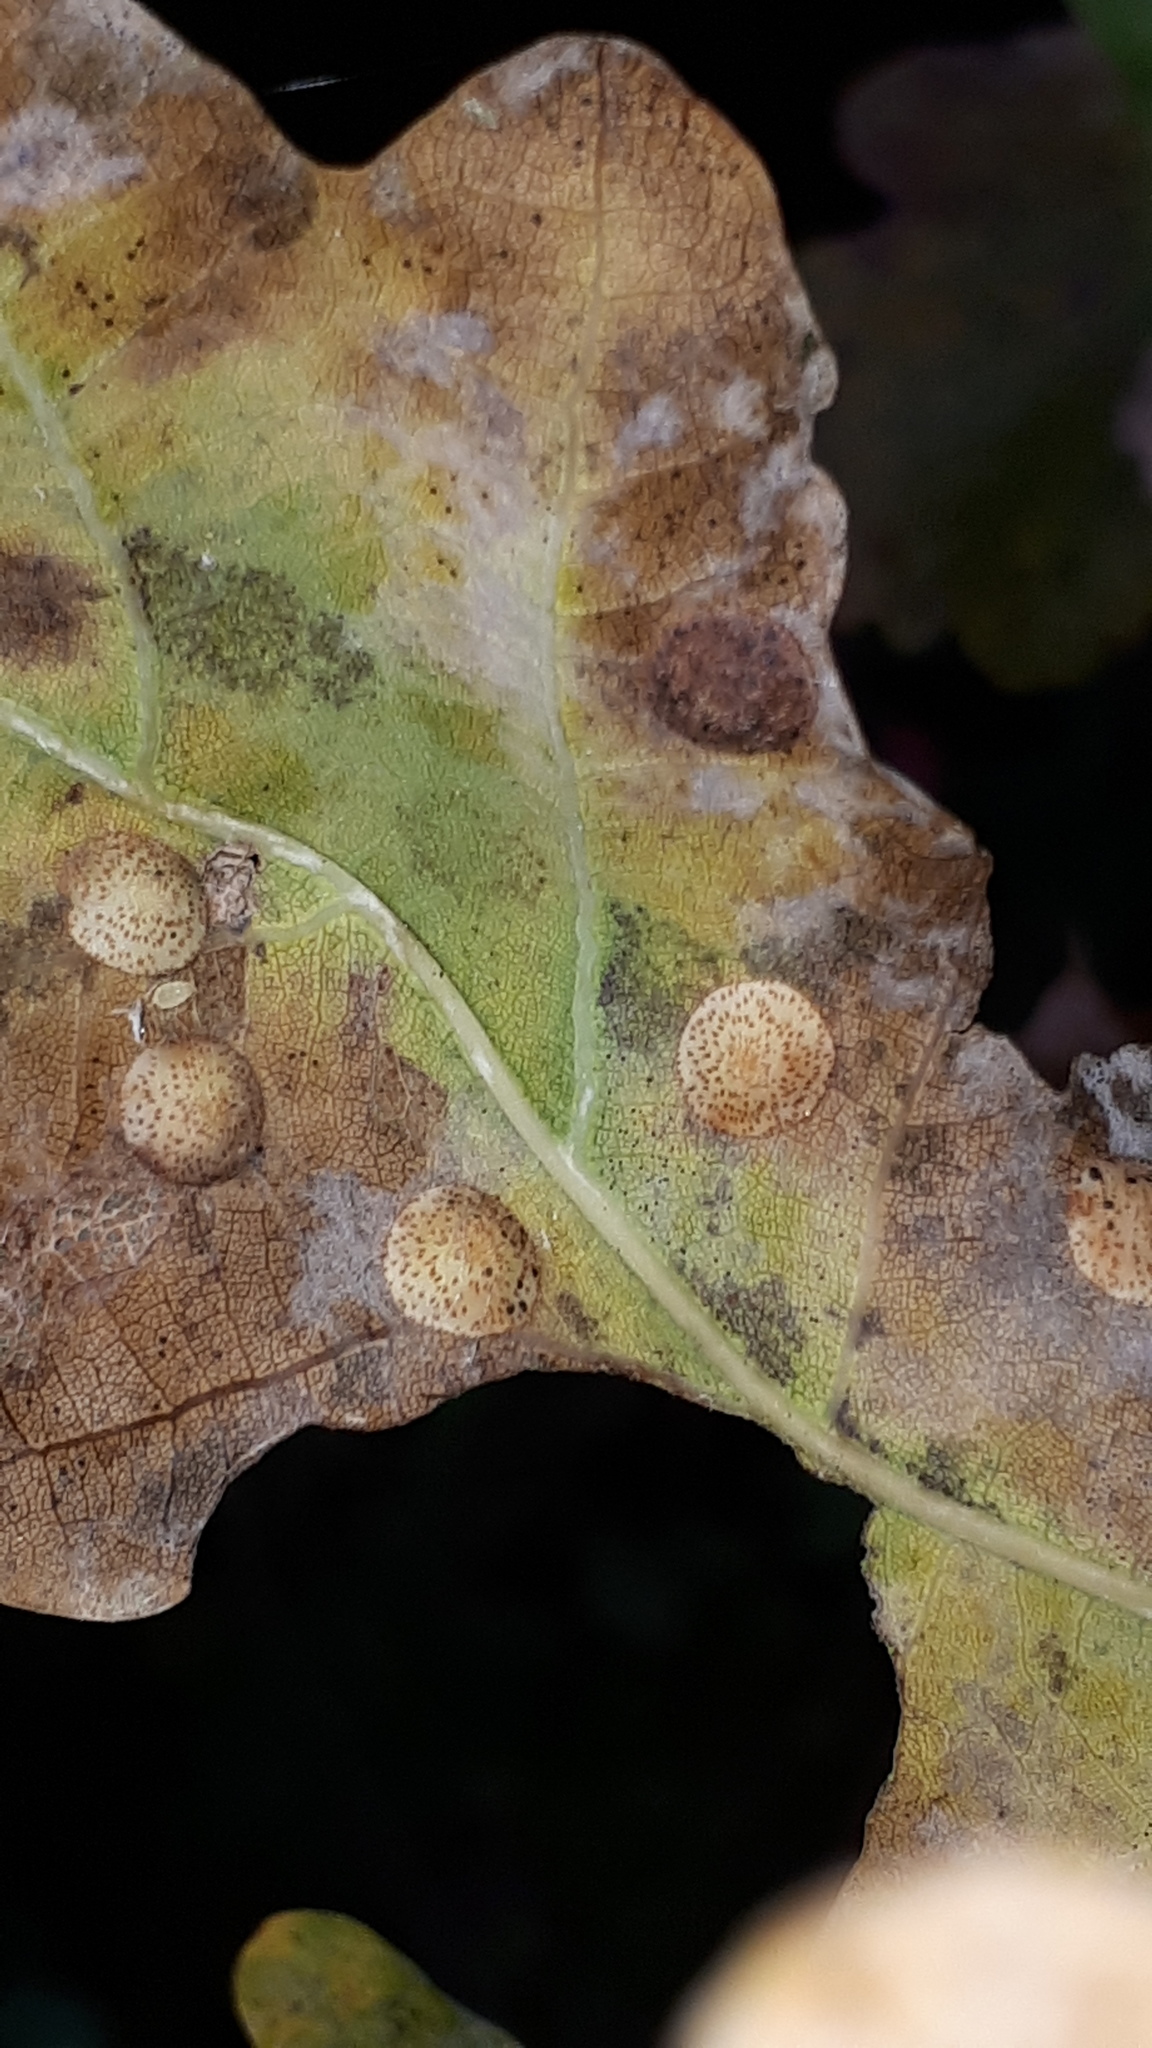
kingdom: Animalia
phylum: Arthropoda
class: Insecta
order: Hymenoptera
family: Cynipidae
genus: Neuroterus
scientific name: Neuroterus quercusbaccarum
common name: Common spangle gall
